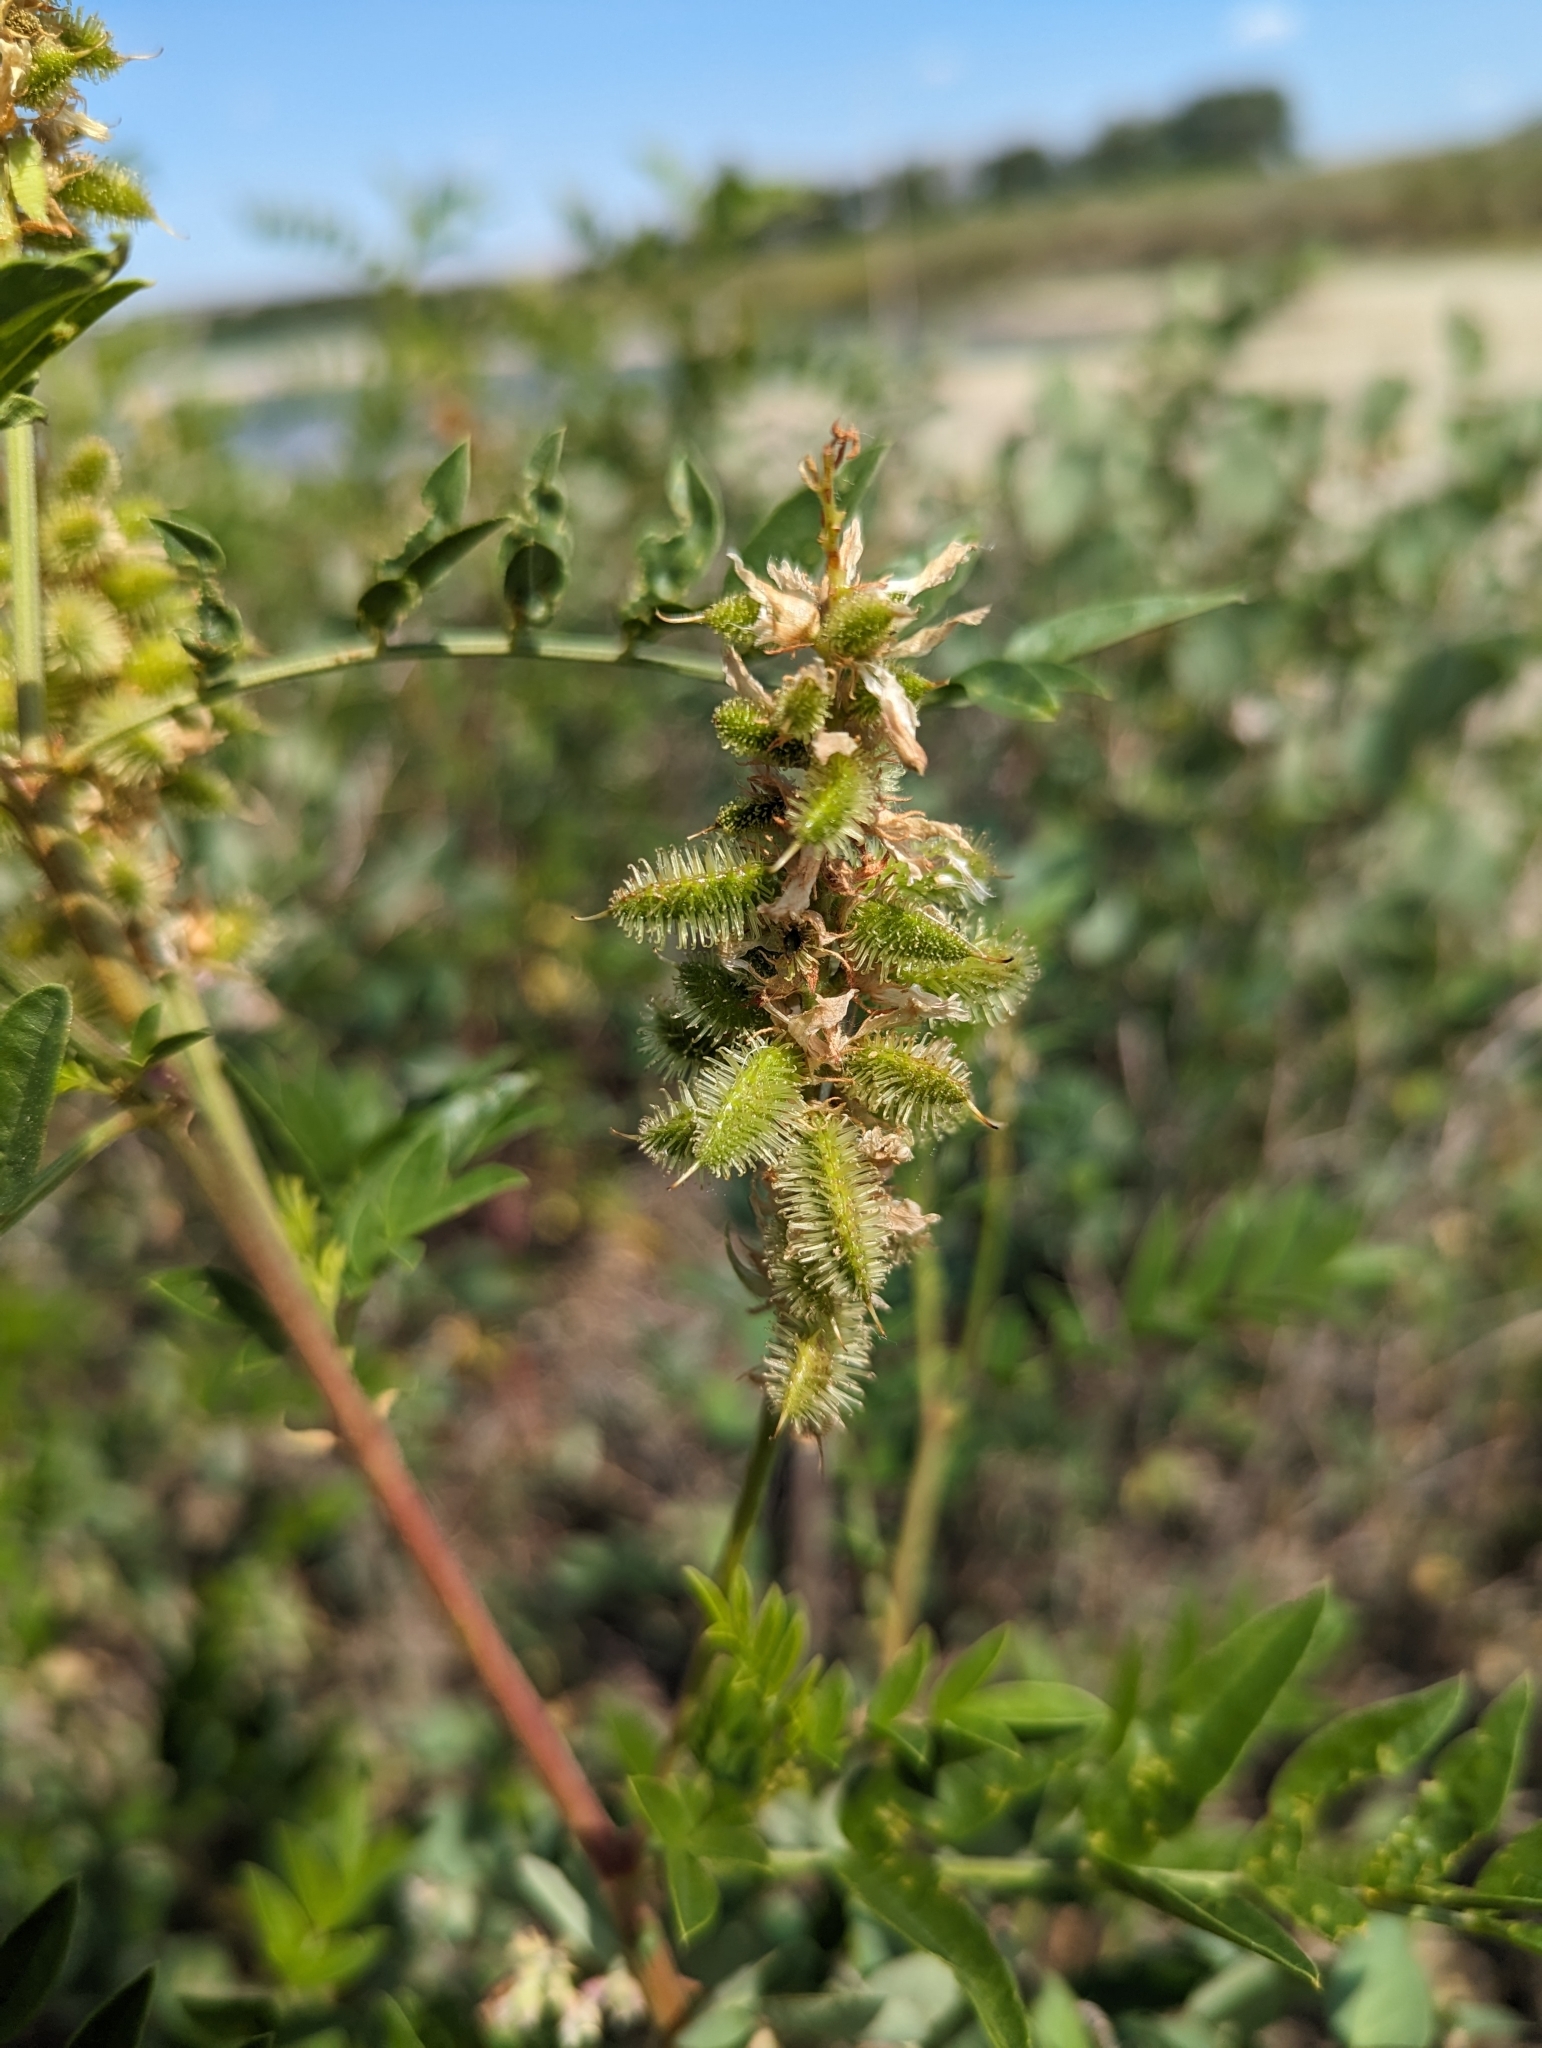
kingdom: Plantae
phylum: Tracheophyta
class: Magnoliopsida
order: Fabales
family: Fabaceae
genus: Glycyrrhiza
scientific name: Glycyrrhiza lepidota
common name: American liquorice
